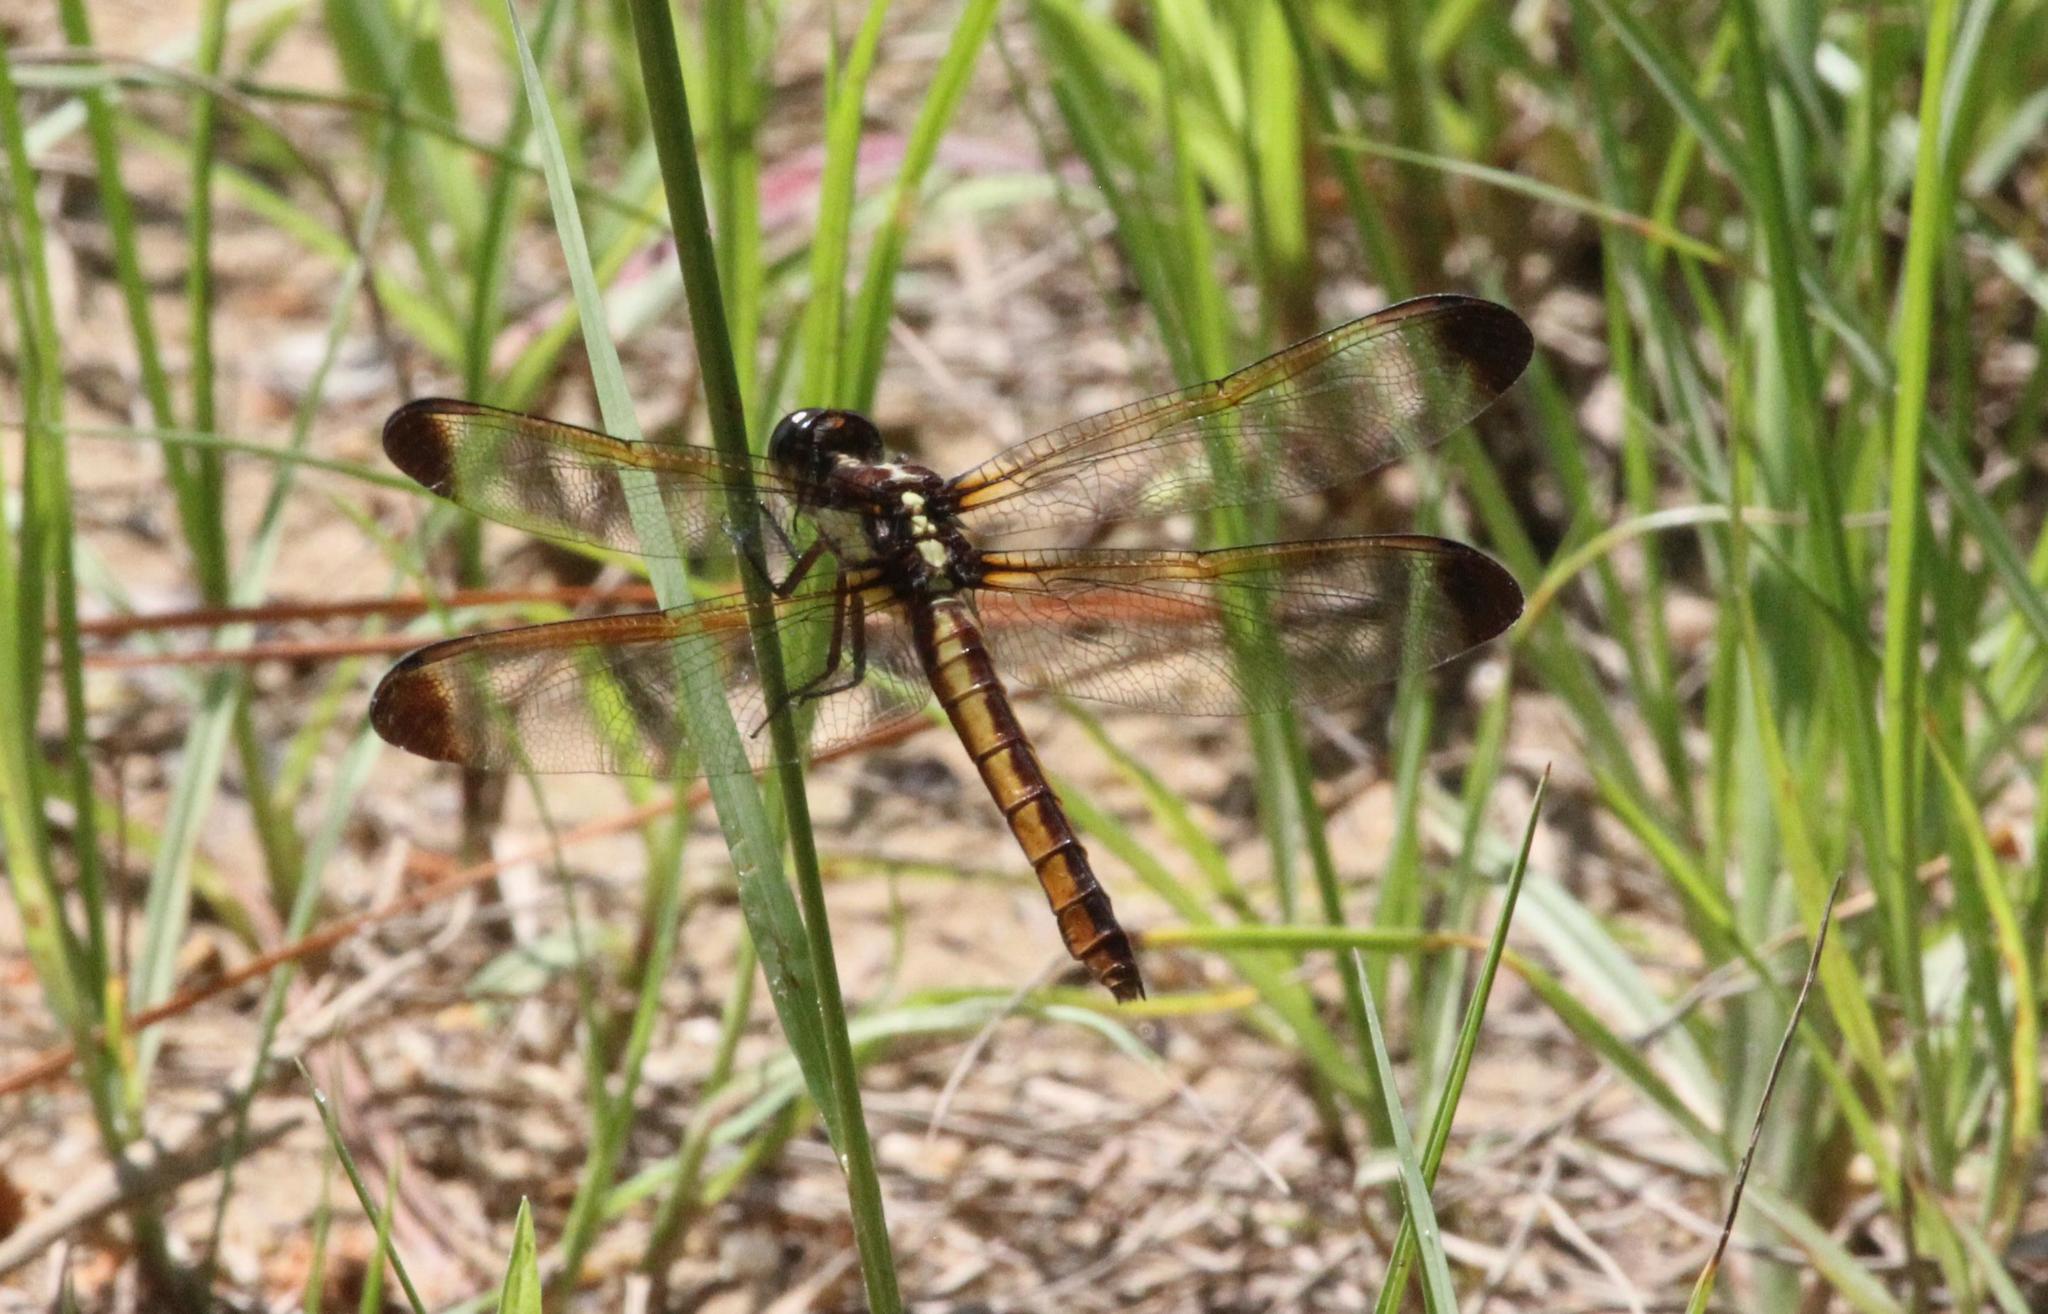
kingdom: Animalia
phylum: Arthropoda
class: Insecta
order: Odonata
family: Libellulidae
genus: Libellula
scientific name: Libellula flavida
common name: Yellow-sided skimmer
